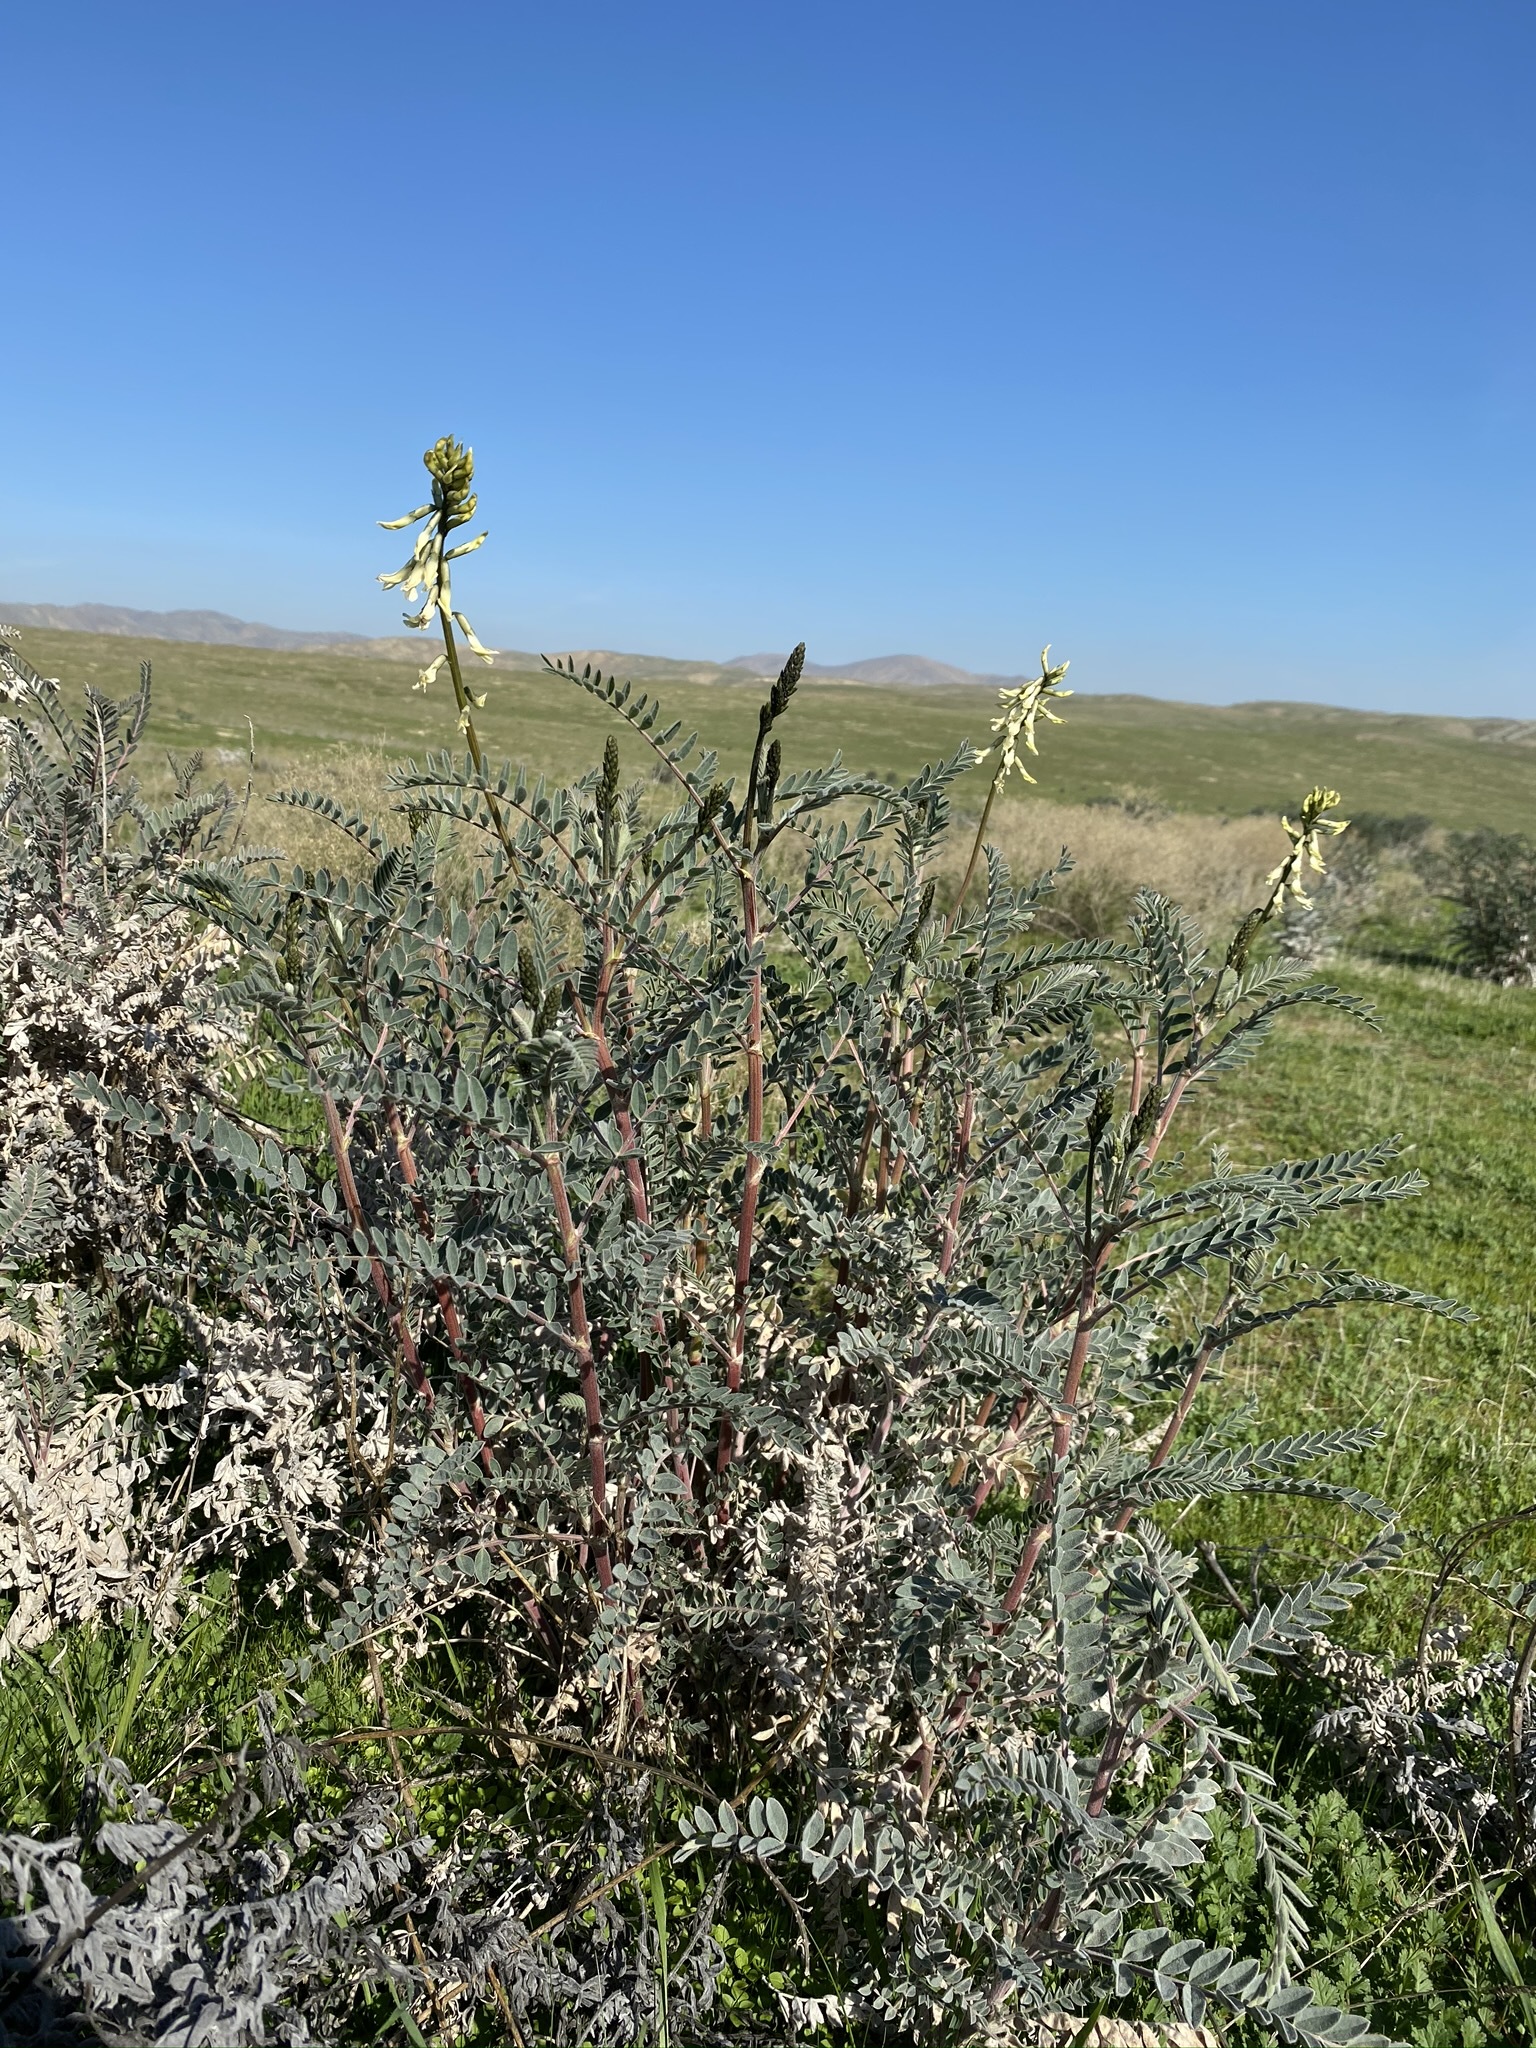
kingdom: Plantae
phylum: Tracheophyta
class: Magnoliopsida
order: Fabales
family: Fabaceae
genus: Astragalus
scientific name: Astragalus oxyphysus
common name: Stanislaus milk-vetch
